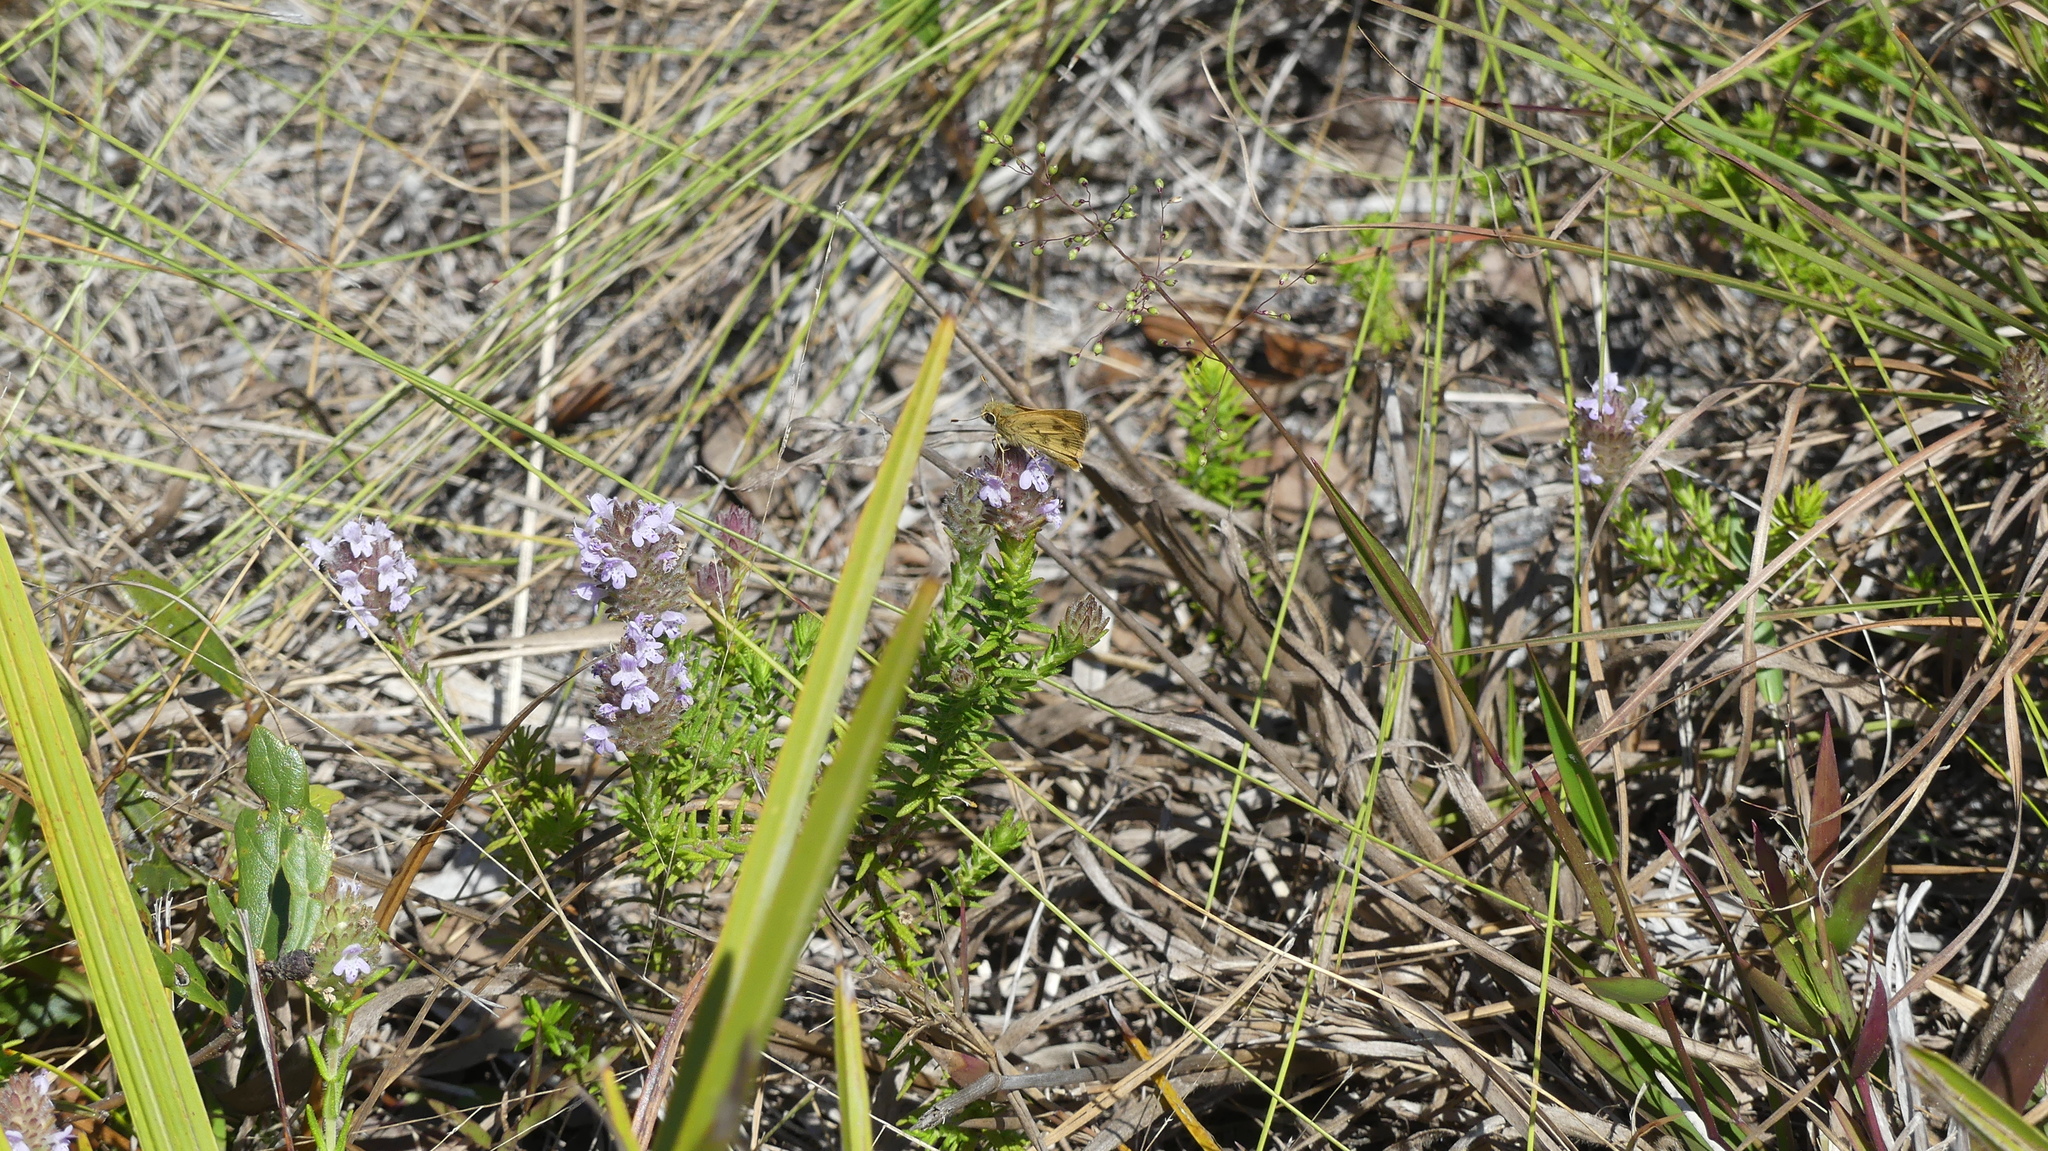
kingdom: Animalia
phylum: Arthropoda
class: Insecta
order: Lepidoptera
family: Hesperiidae
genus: Polites
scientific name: Polites vibex
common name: Whirlabout
